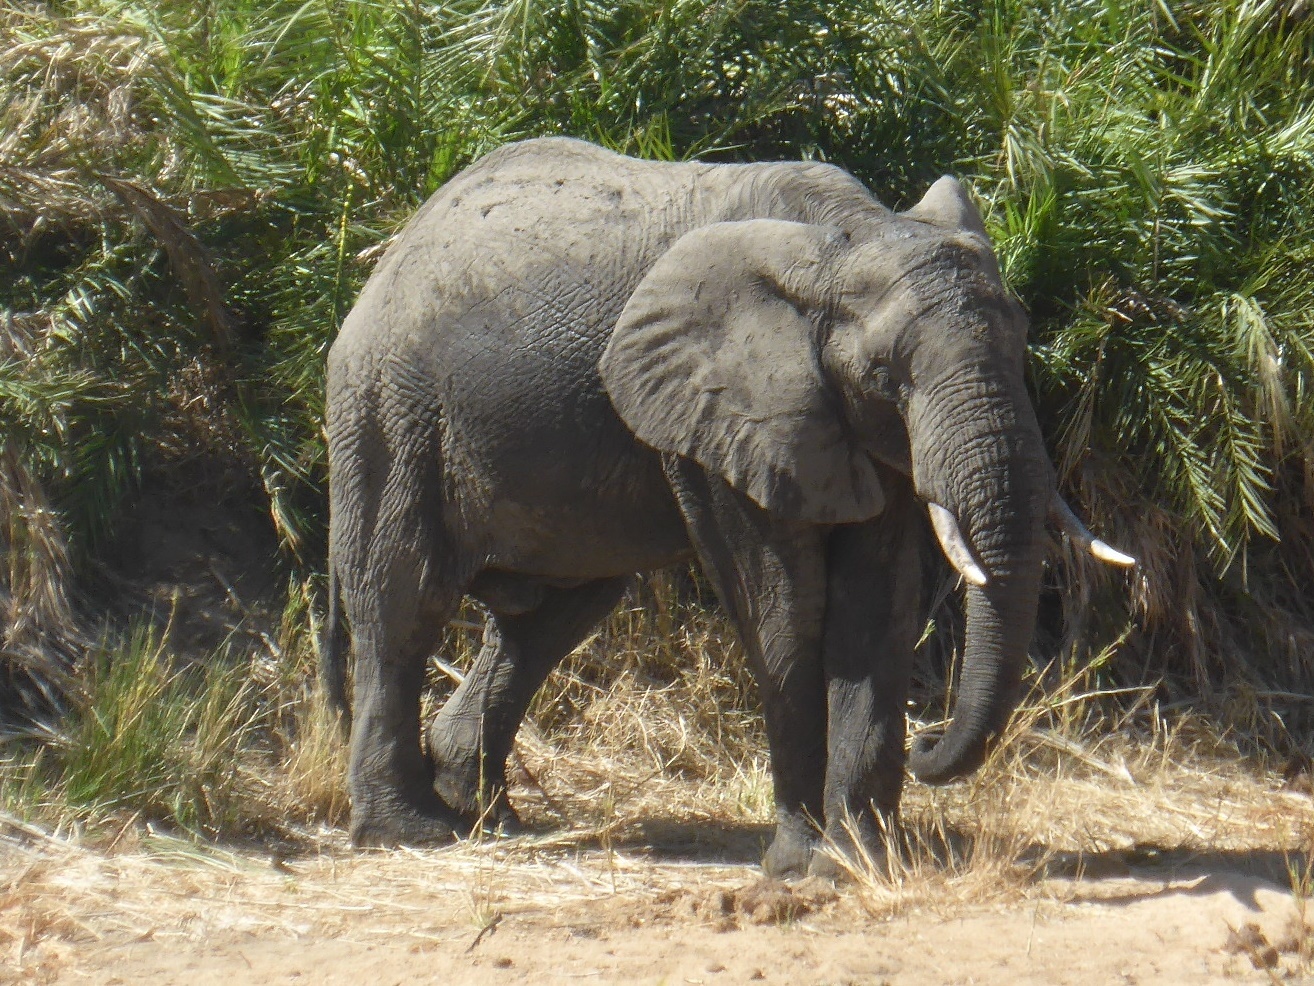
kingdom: Animalia
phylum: Chordata
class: Mammalia
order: Proboscidea
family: Elephantidae
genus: Loxodonta
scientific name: Loxodonta africana
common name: African elephant
